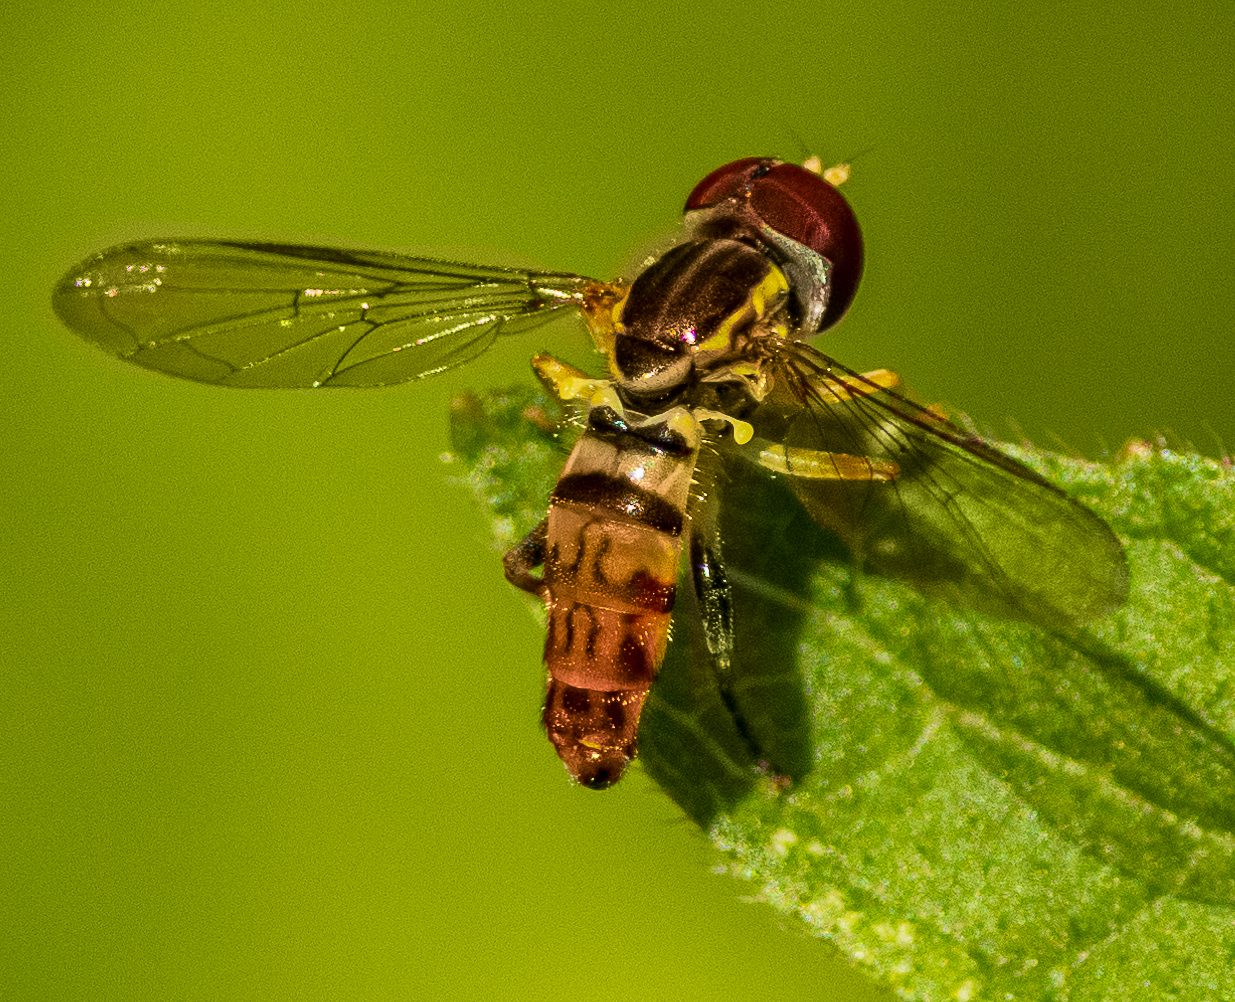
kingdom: Animalia
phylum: Arthropoda
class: Insecta
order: Diptera
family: Syrphidae
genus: Toxomerus
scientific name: Toxomerus geminatus
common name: Eastern calligrapher
